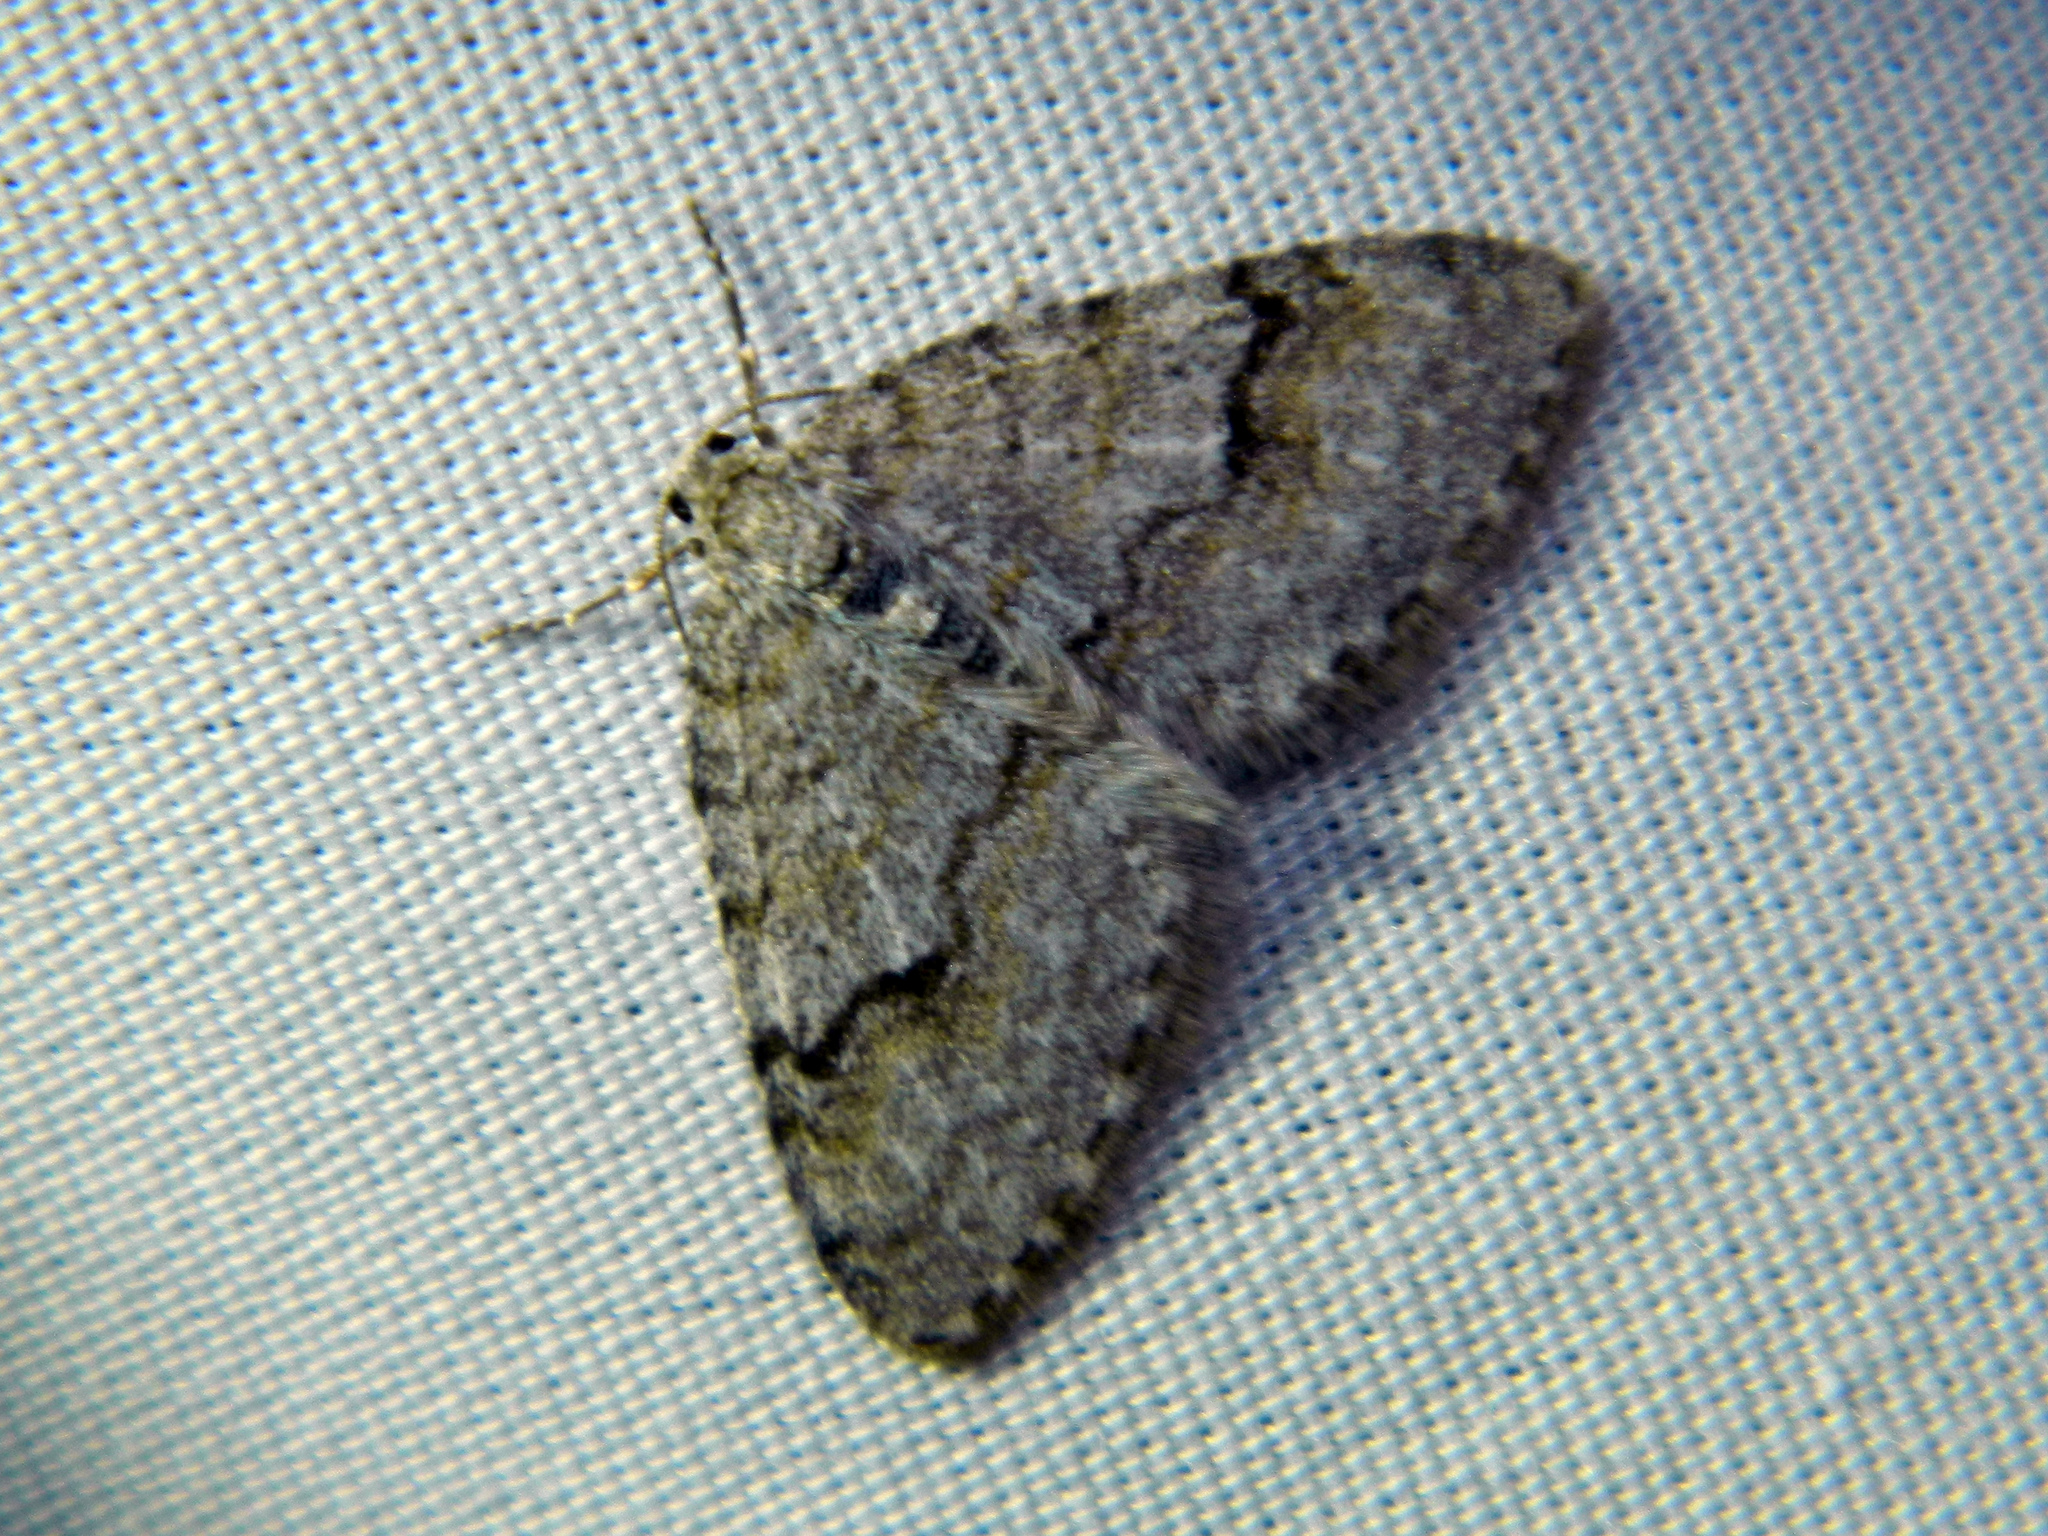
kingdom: Animalia
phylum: Arthropoda
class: Insecta
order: Lepidoptera
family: Geometridae
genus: Venusia
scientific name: Venusia comptaria
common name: Brown-shaded carpet
